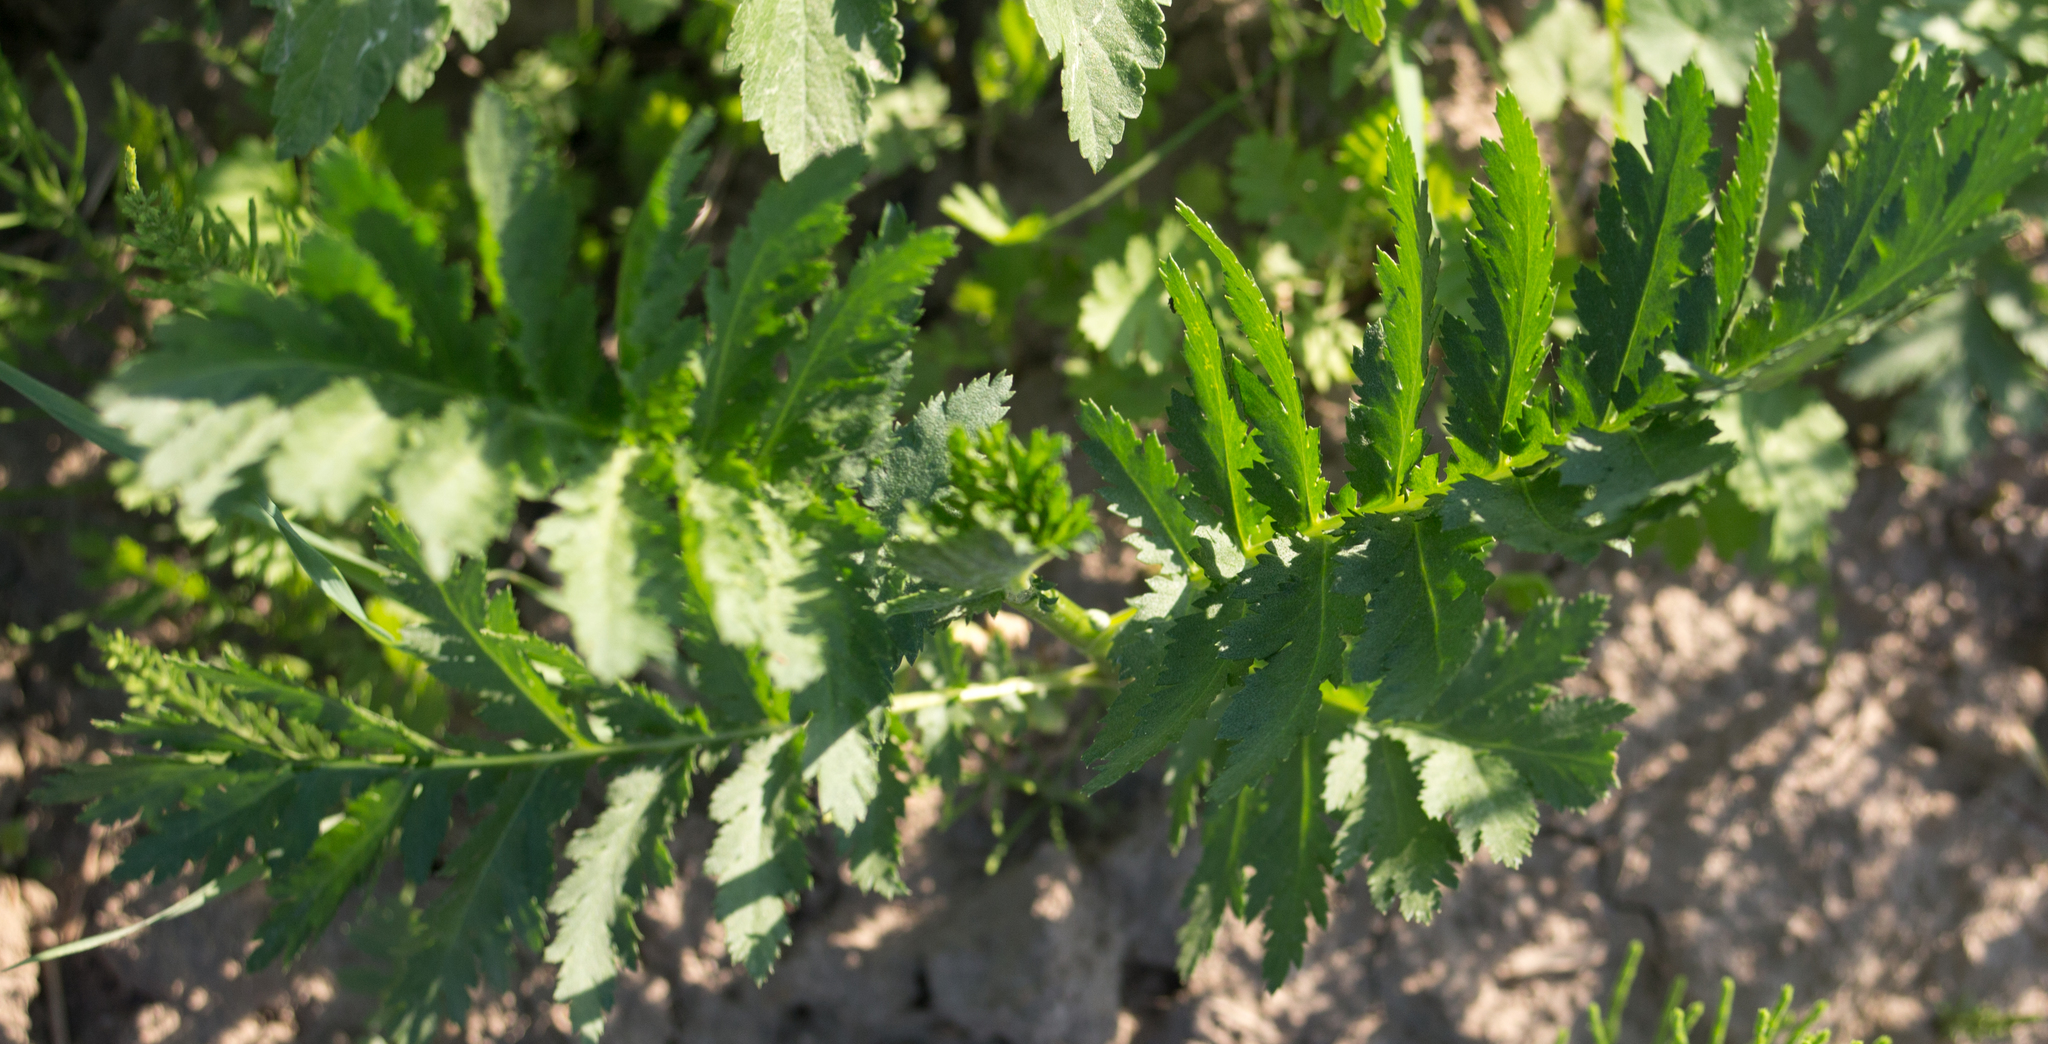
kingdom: Plantae
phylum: Tracheophyta
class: Magnoliopsida
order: Asterales
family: Asteraceae
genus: Tanacetum
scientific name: Tanacetum vulgare
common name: Common tansy
